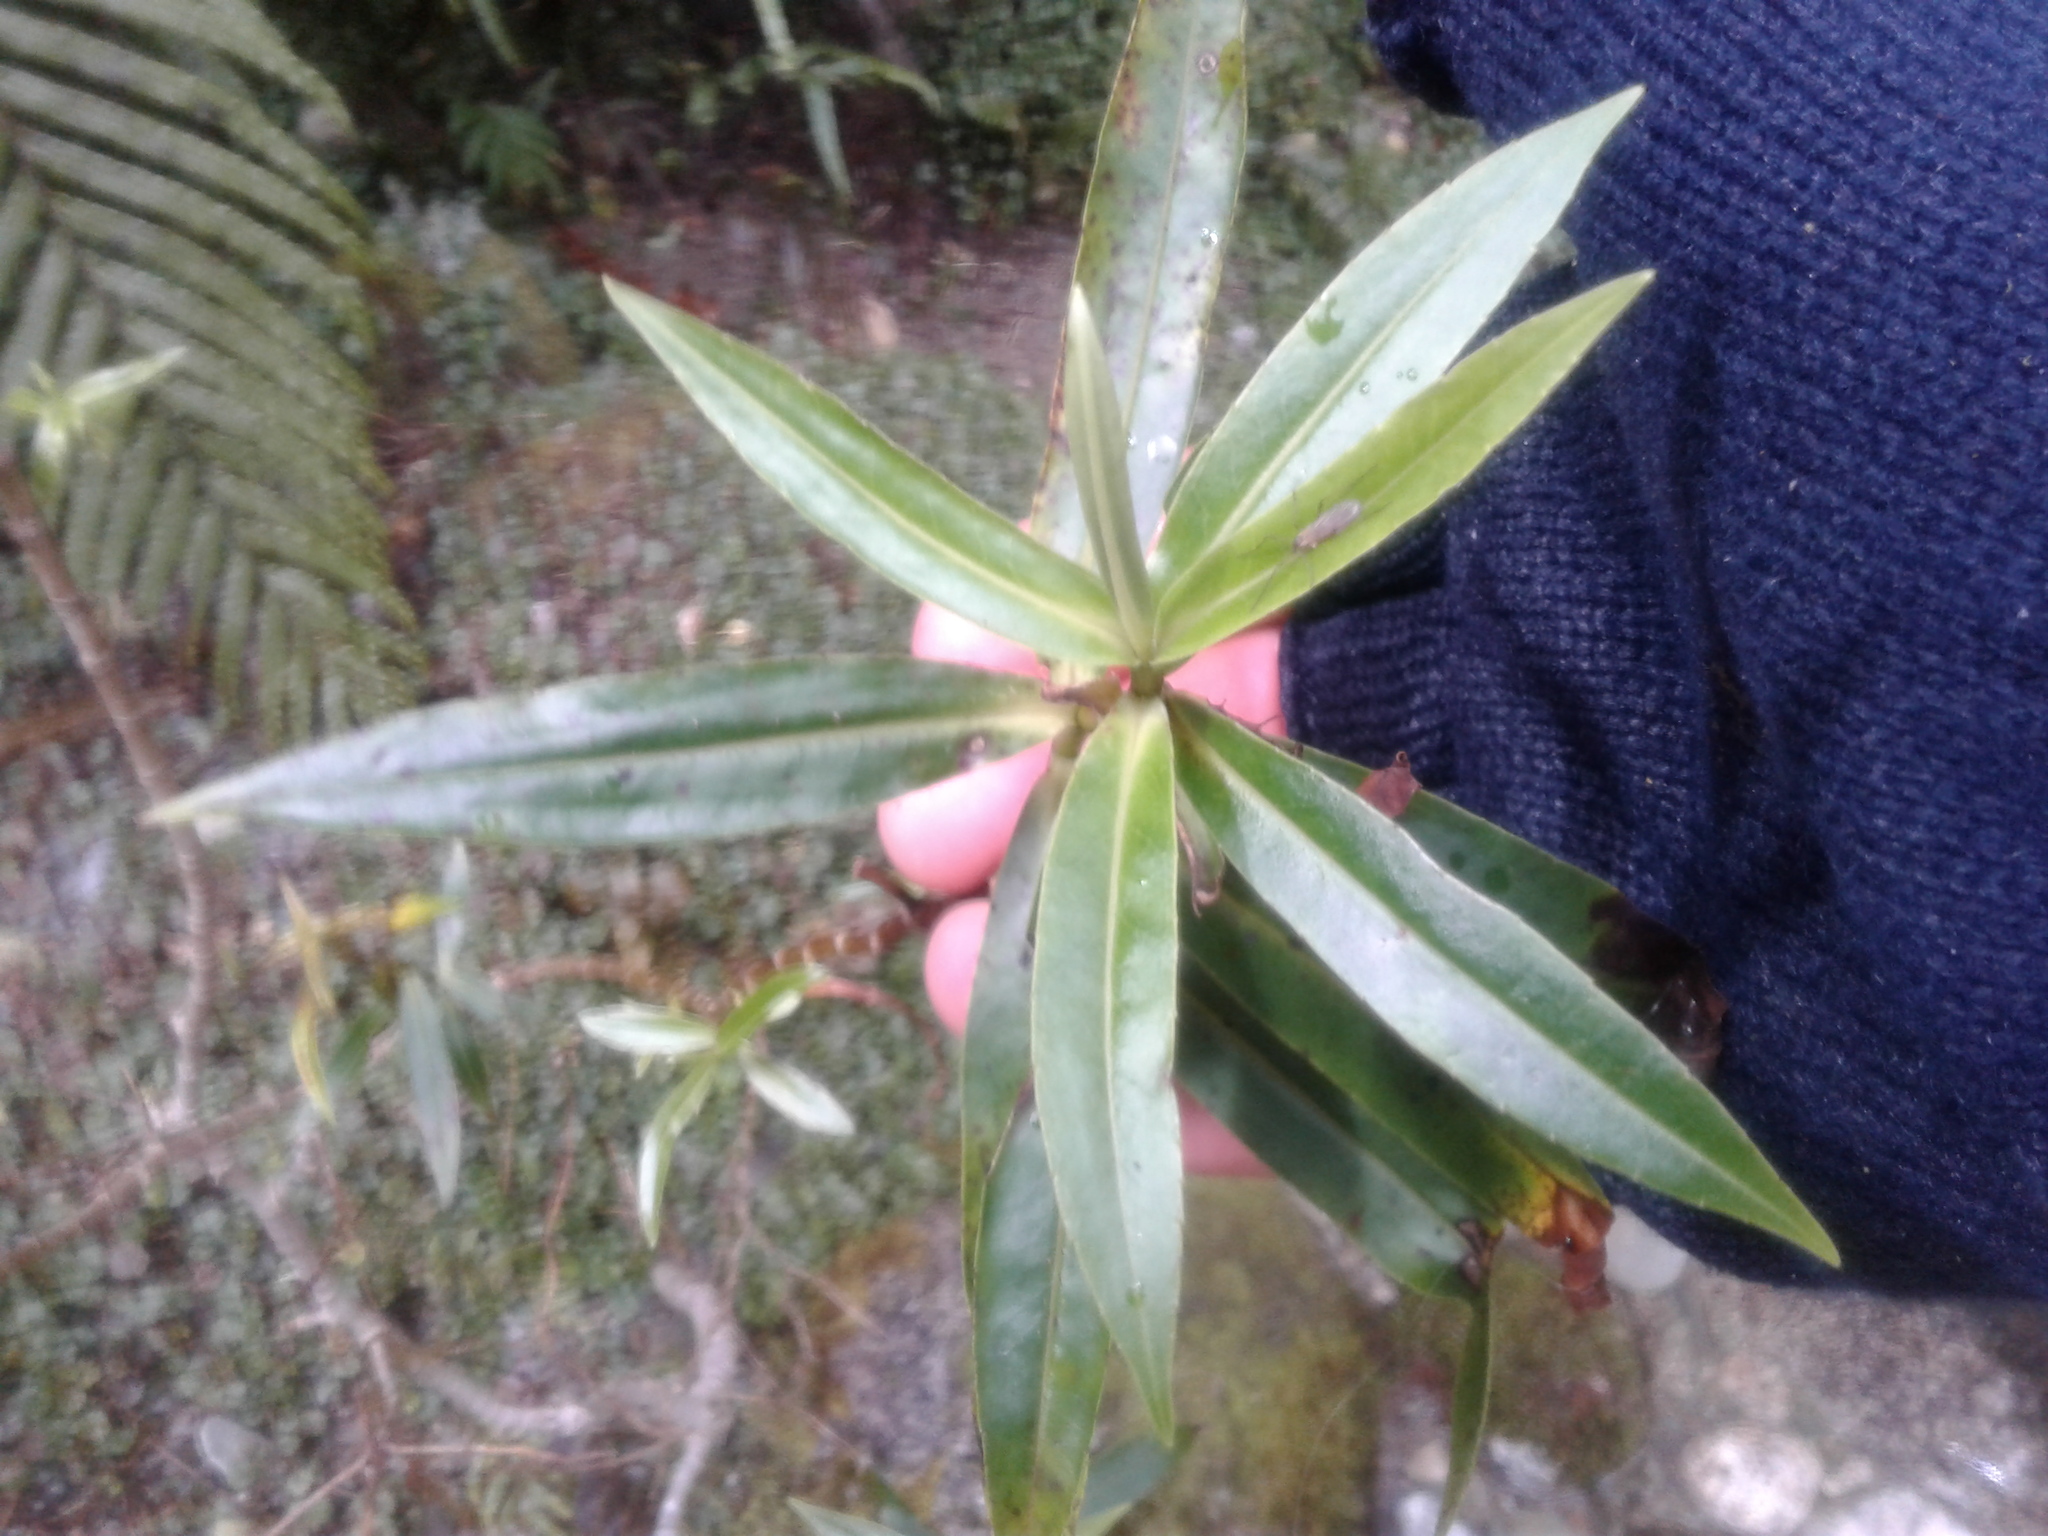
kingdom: Plantae
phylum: Tracheophyta
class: Magnoliopsida
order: Lamiales
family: Plantaginaceae
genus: Veronica
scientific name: Veronica salicifolia
